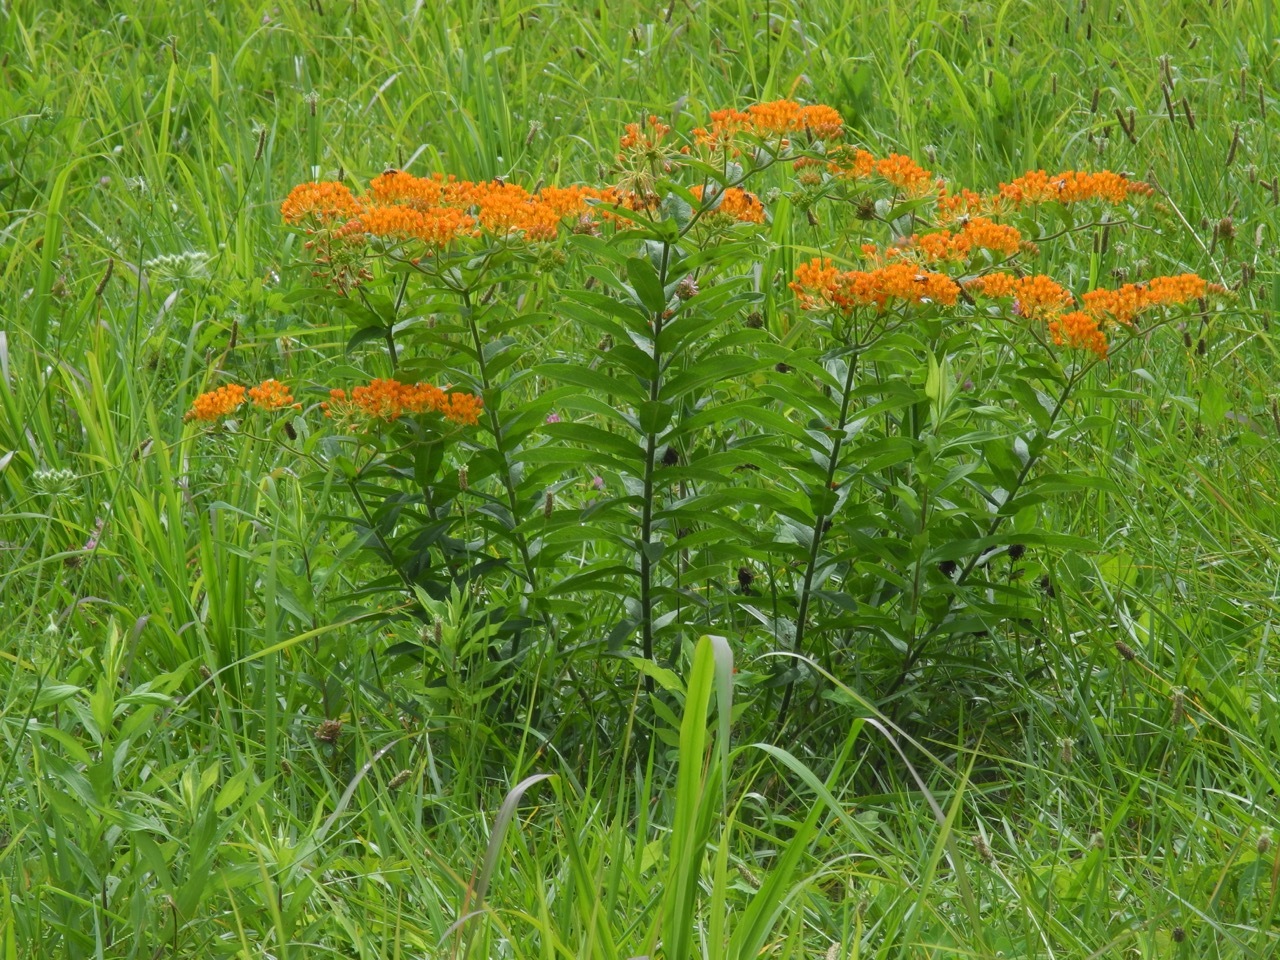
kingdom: Plantae
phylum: Tracheophyta
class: Magnoliopsida
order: Gentianales
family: Apocynaceae
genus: Asclepias
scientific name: Asclepias tuberosa
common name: Butterfly milkweed
